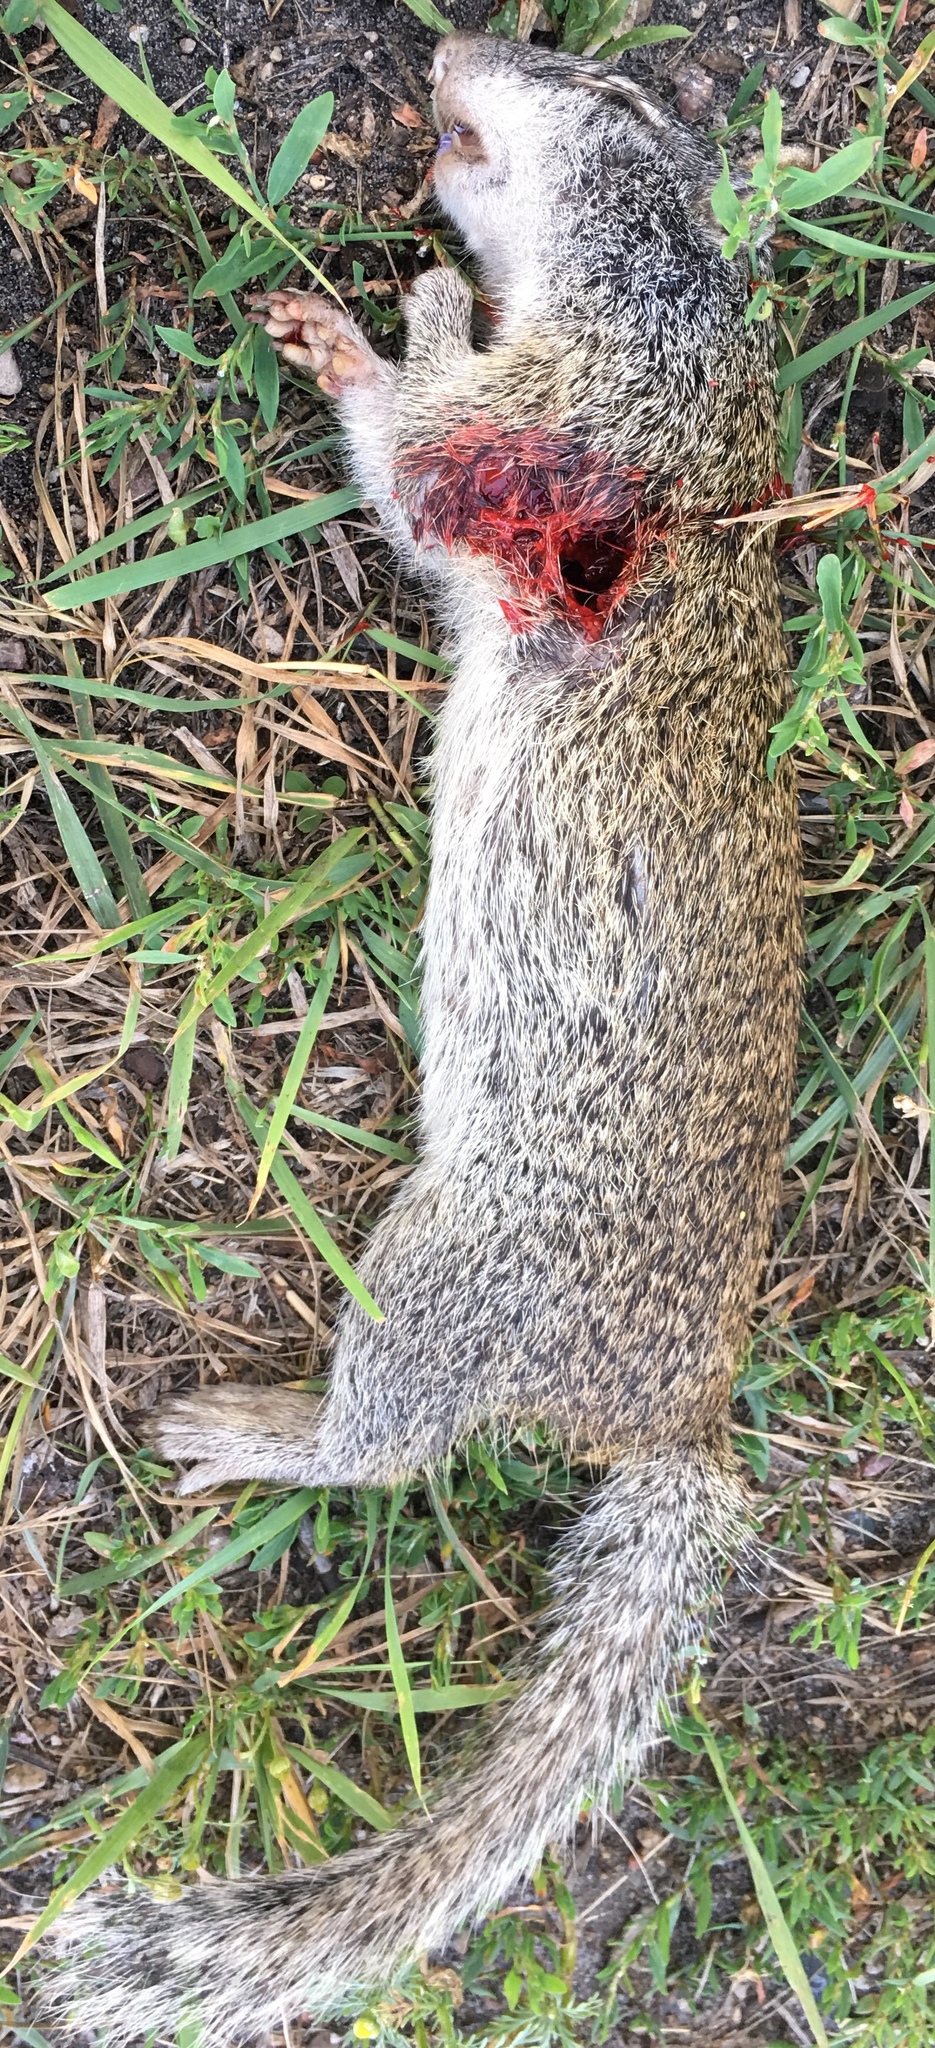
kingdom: Animalia
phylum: Chordata
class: Mammalia
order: Rodentia
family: Sciuridae
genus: Poliocitellus
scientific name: Poliocitellus franklinii
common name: Franklin's ground squirrel
